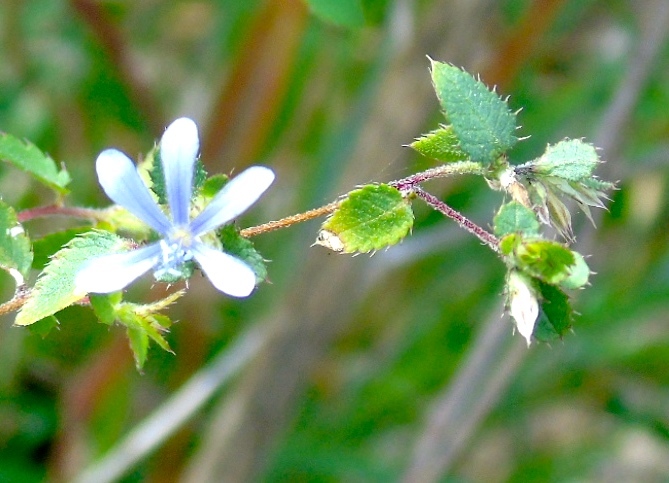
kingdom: Plantae
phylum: Tracheophyta
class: Magnoliopsida
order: Ericales
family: Polemoniaceae
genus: Loeselia
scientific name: Loeselia ciliata
